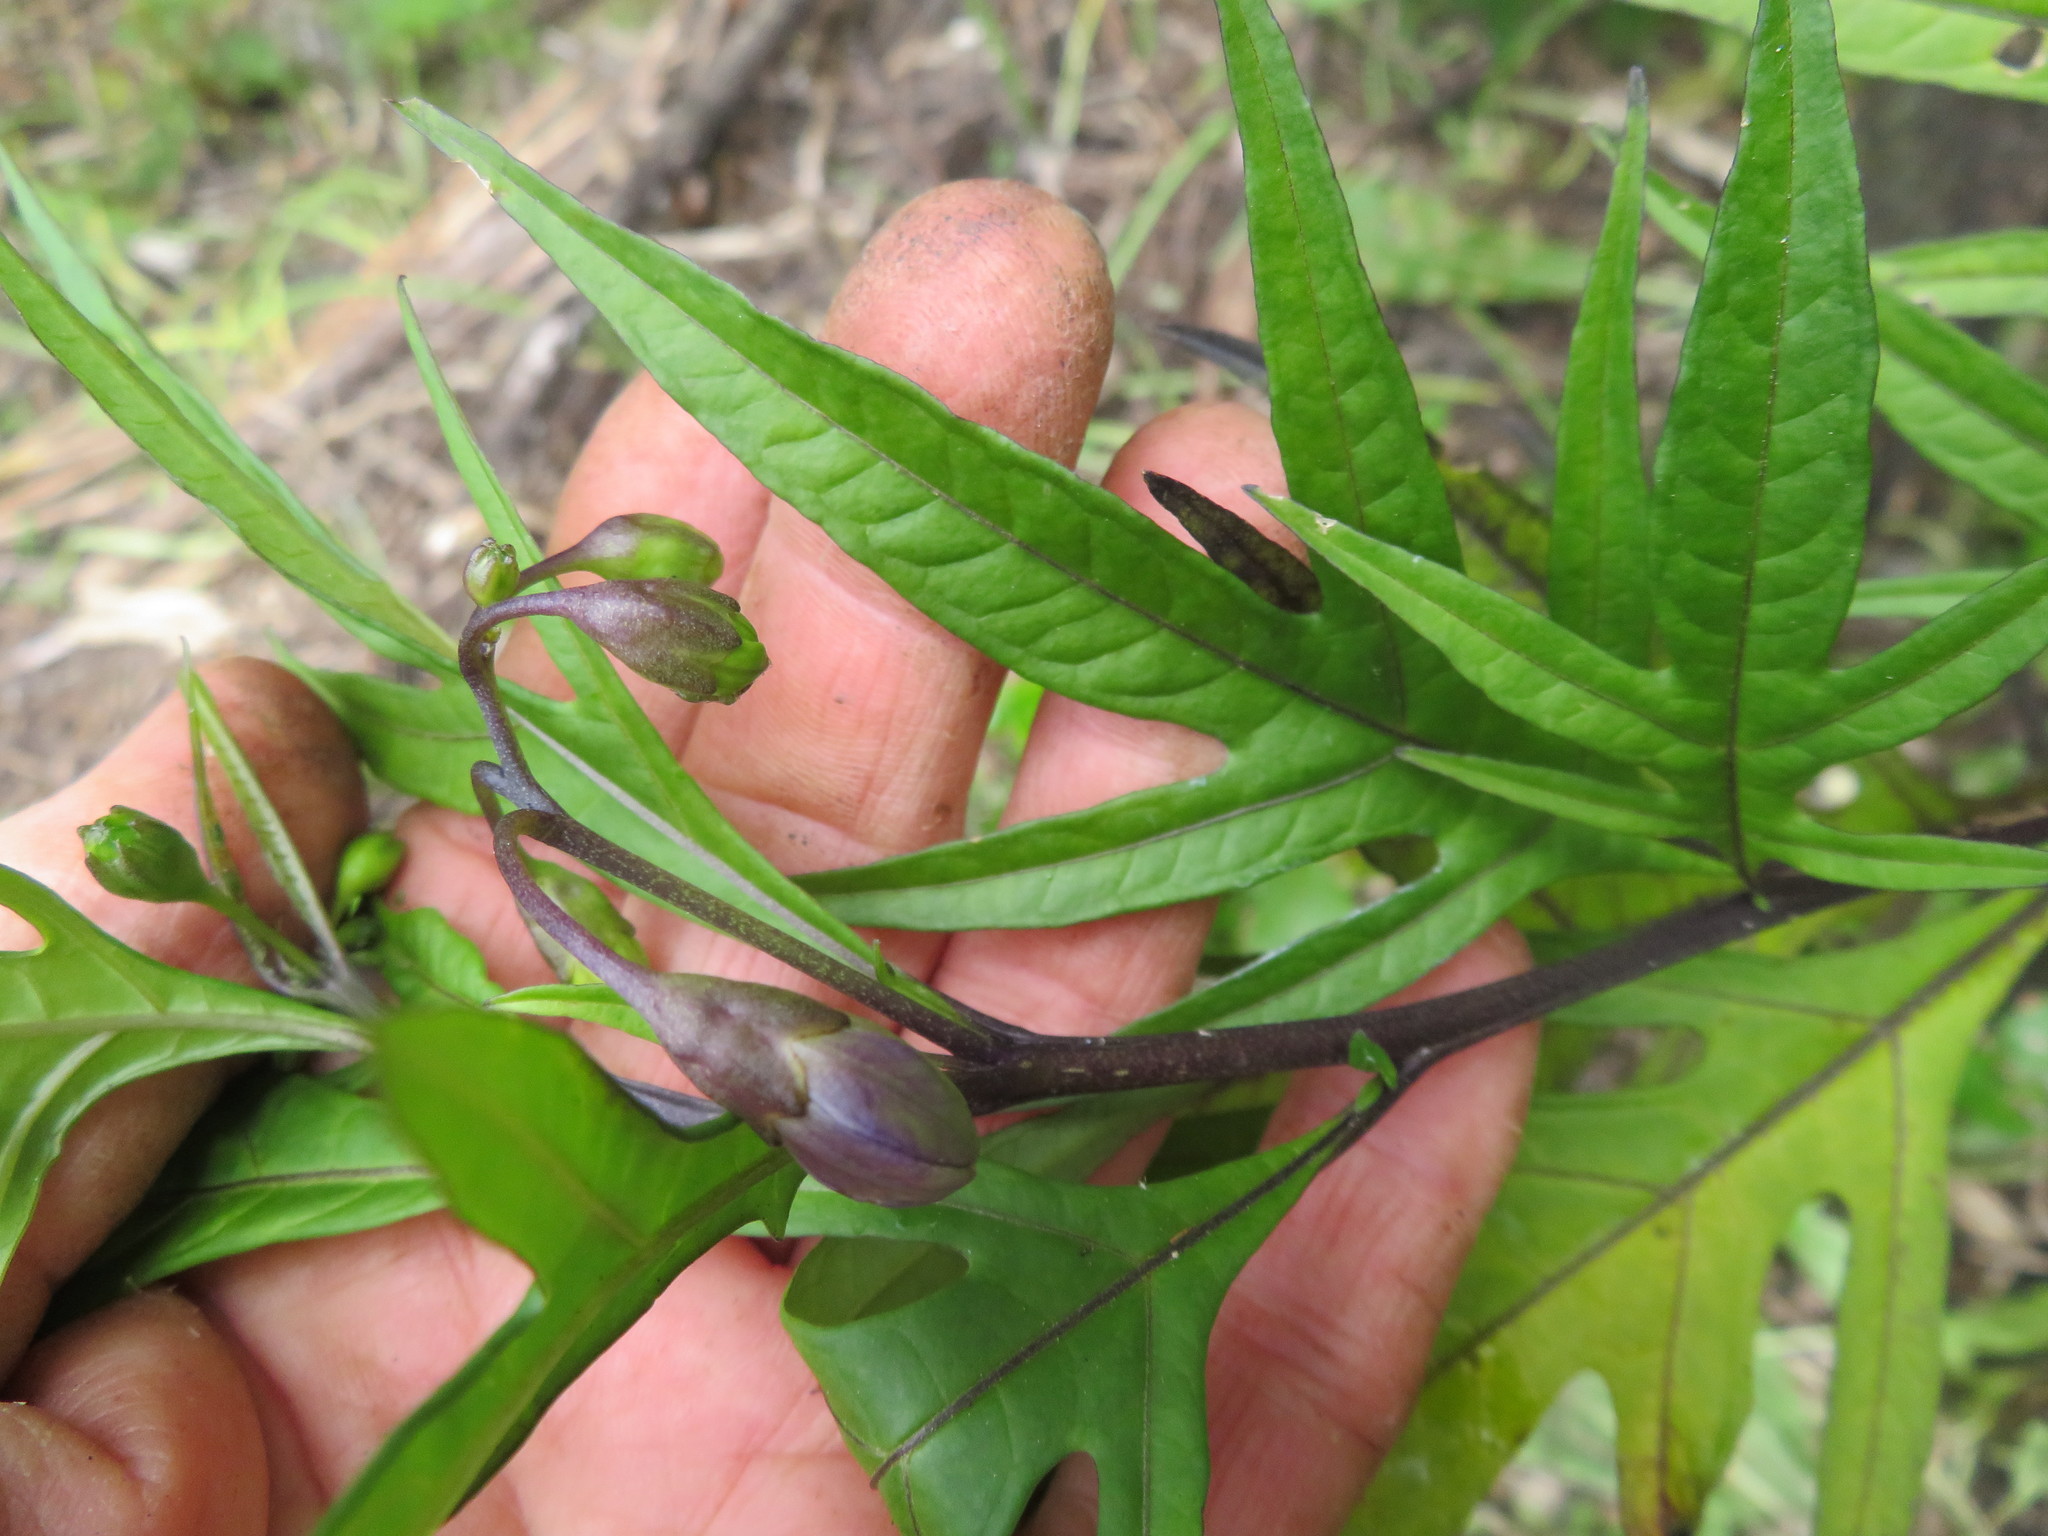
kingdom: Plantae
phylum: Tracheophyta
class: Magnoliopsida
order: Solanales
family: Solanaceae
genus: Solanum
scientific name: Solanum laciniatum
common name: Kangaroo-apple
